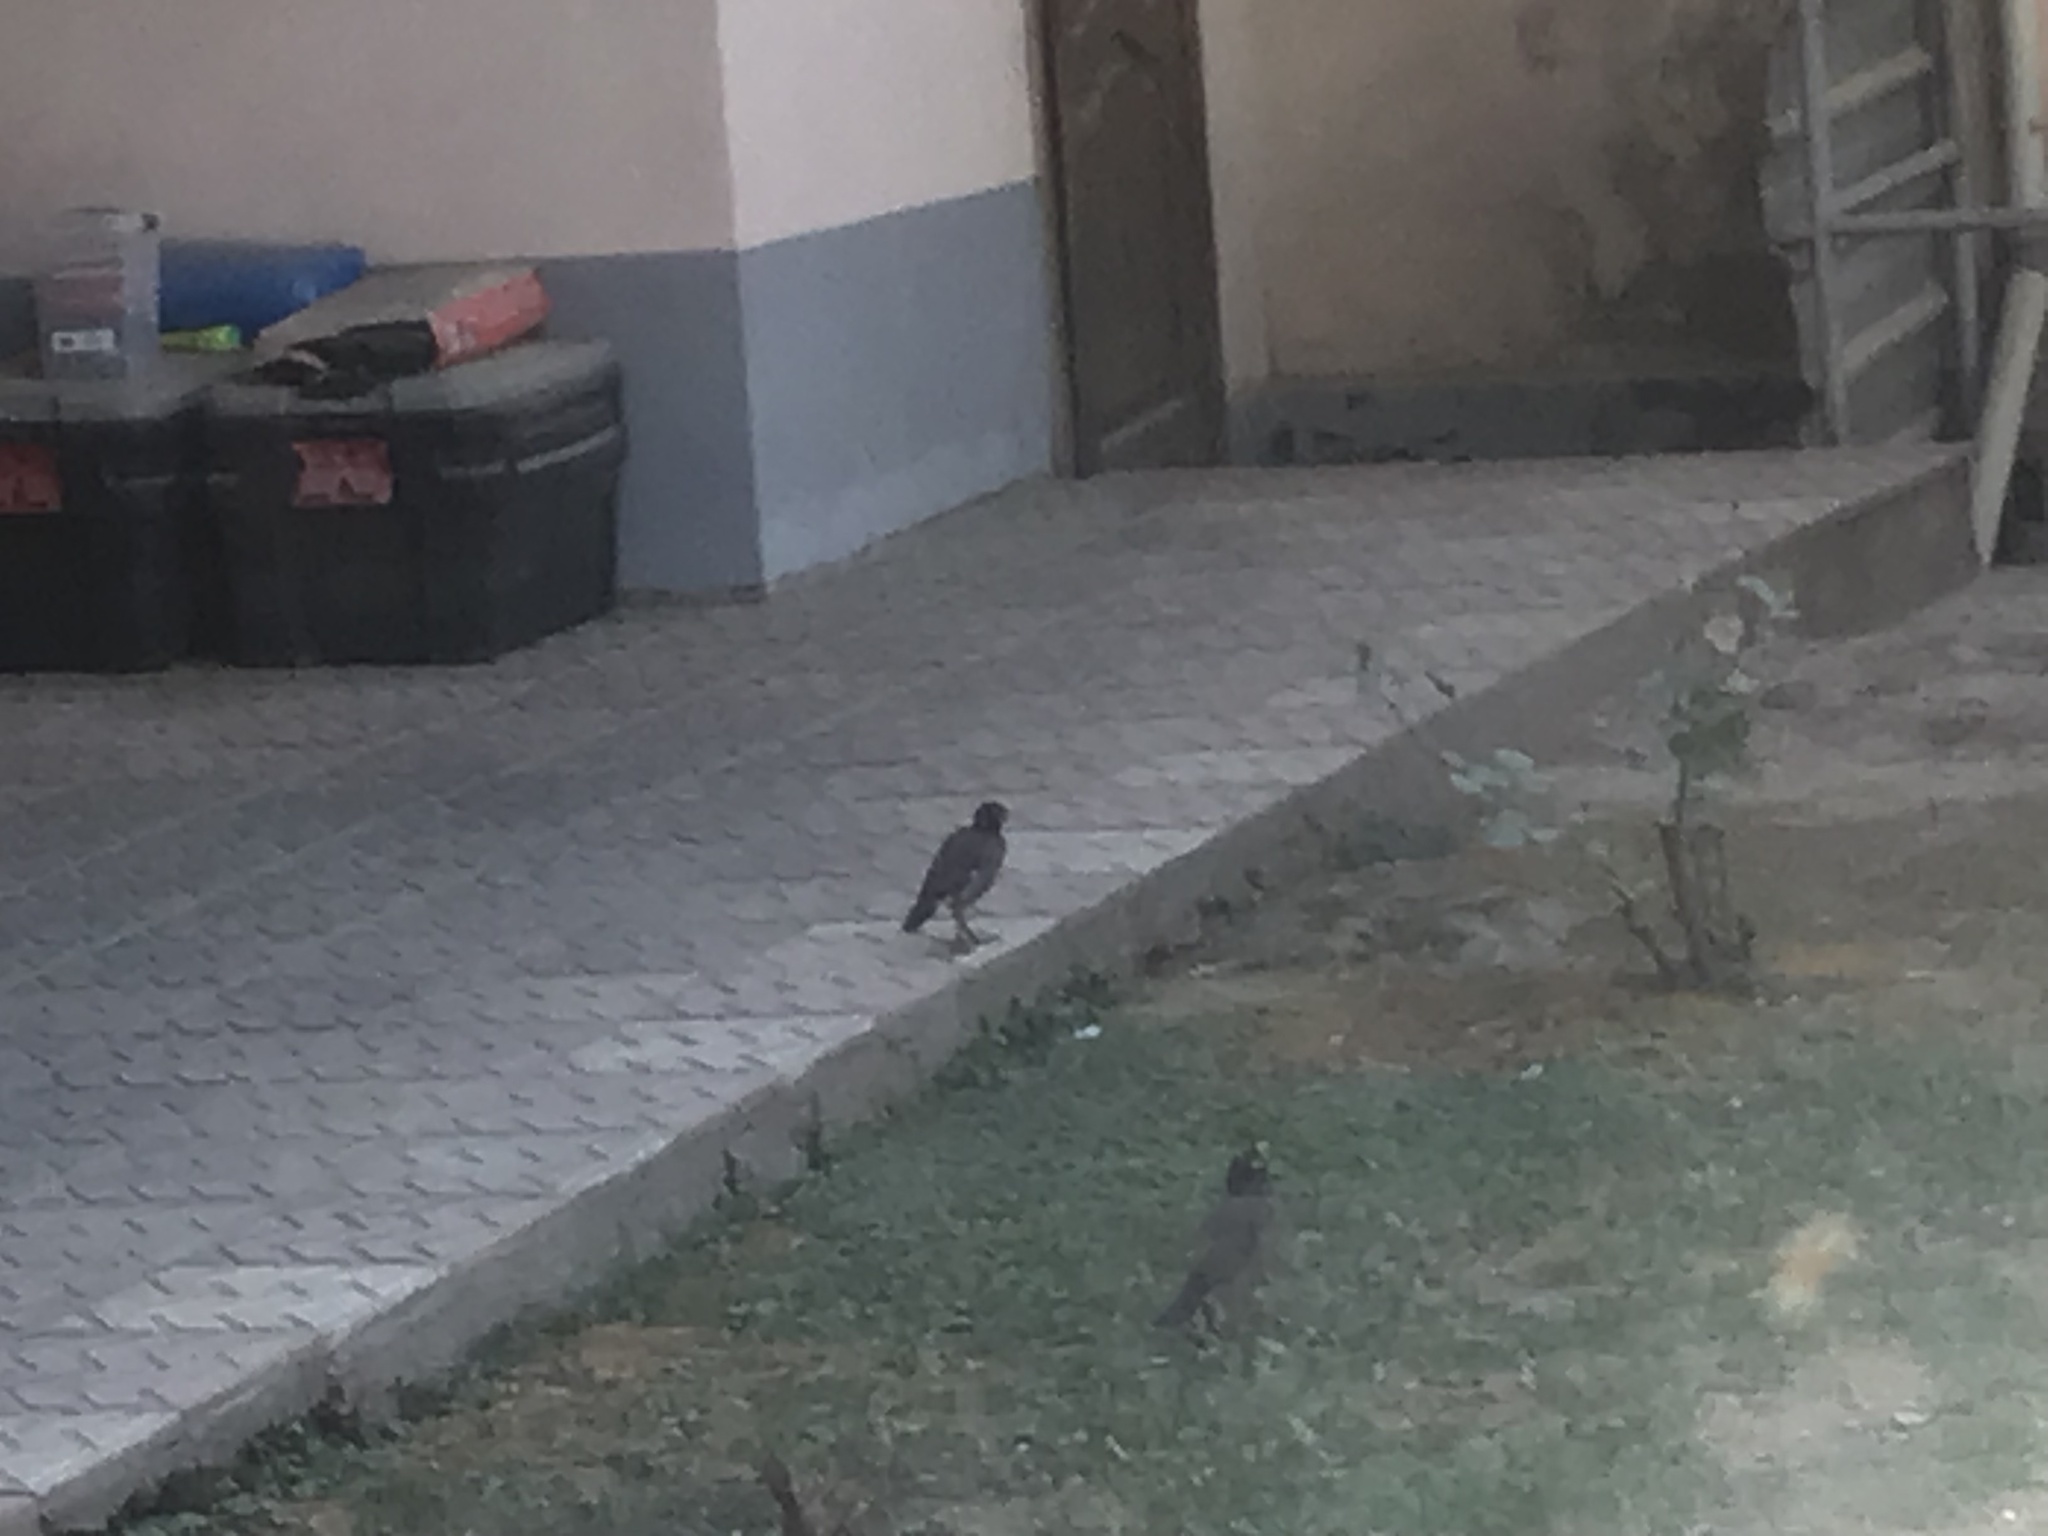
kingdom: Animalia
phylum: Chordata
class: Aves
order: Passeriformes
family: Sturnidae
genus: Acridotheres
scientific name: Acridotheres tristis
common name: Common myna
